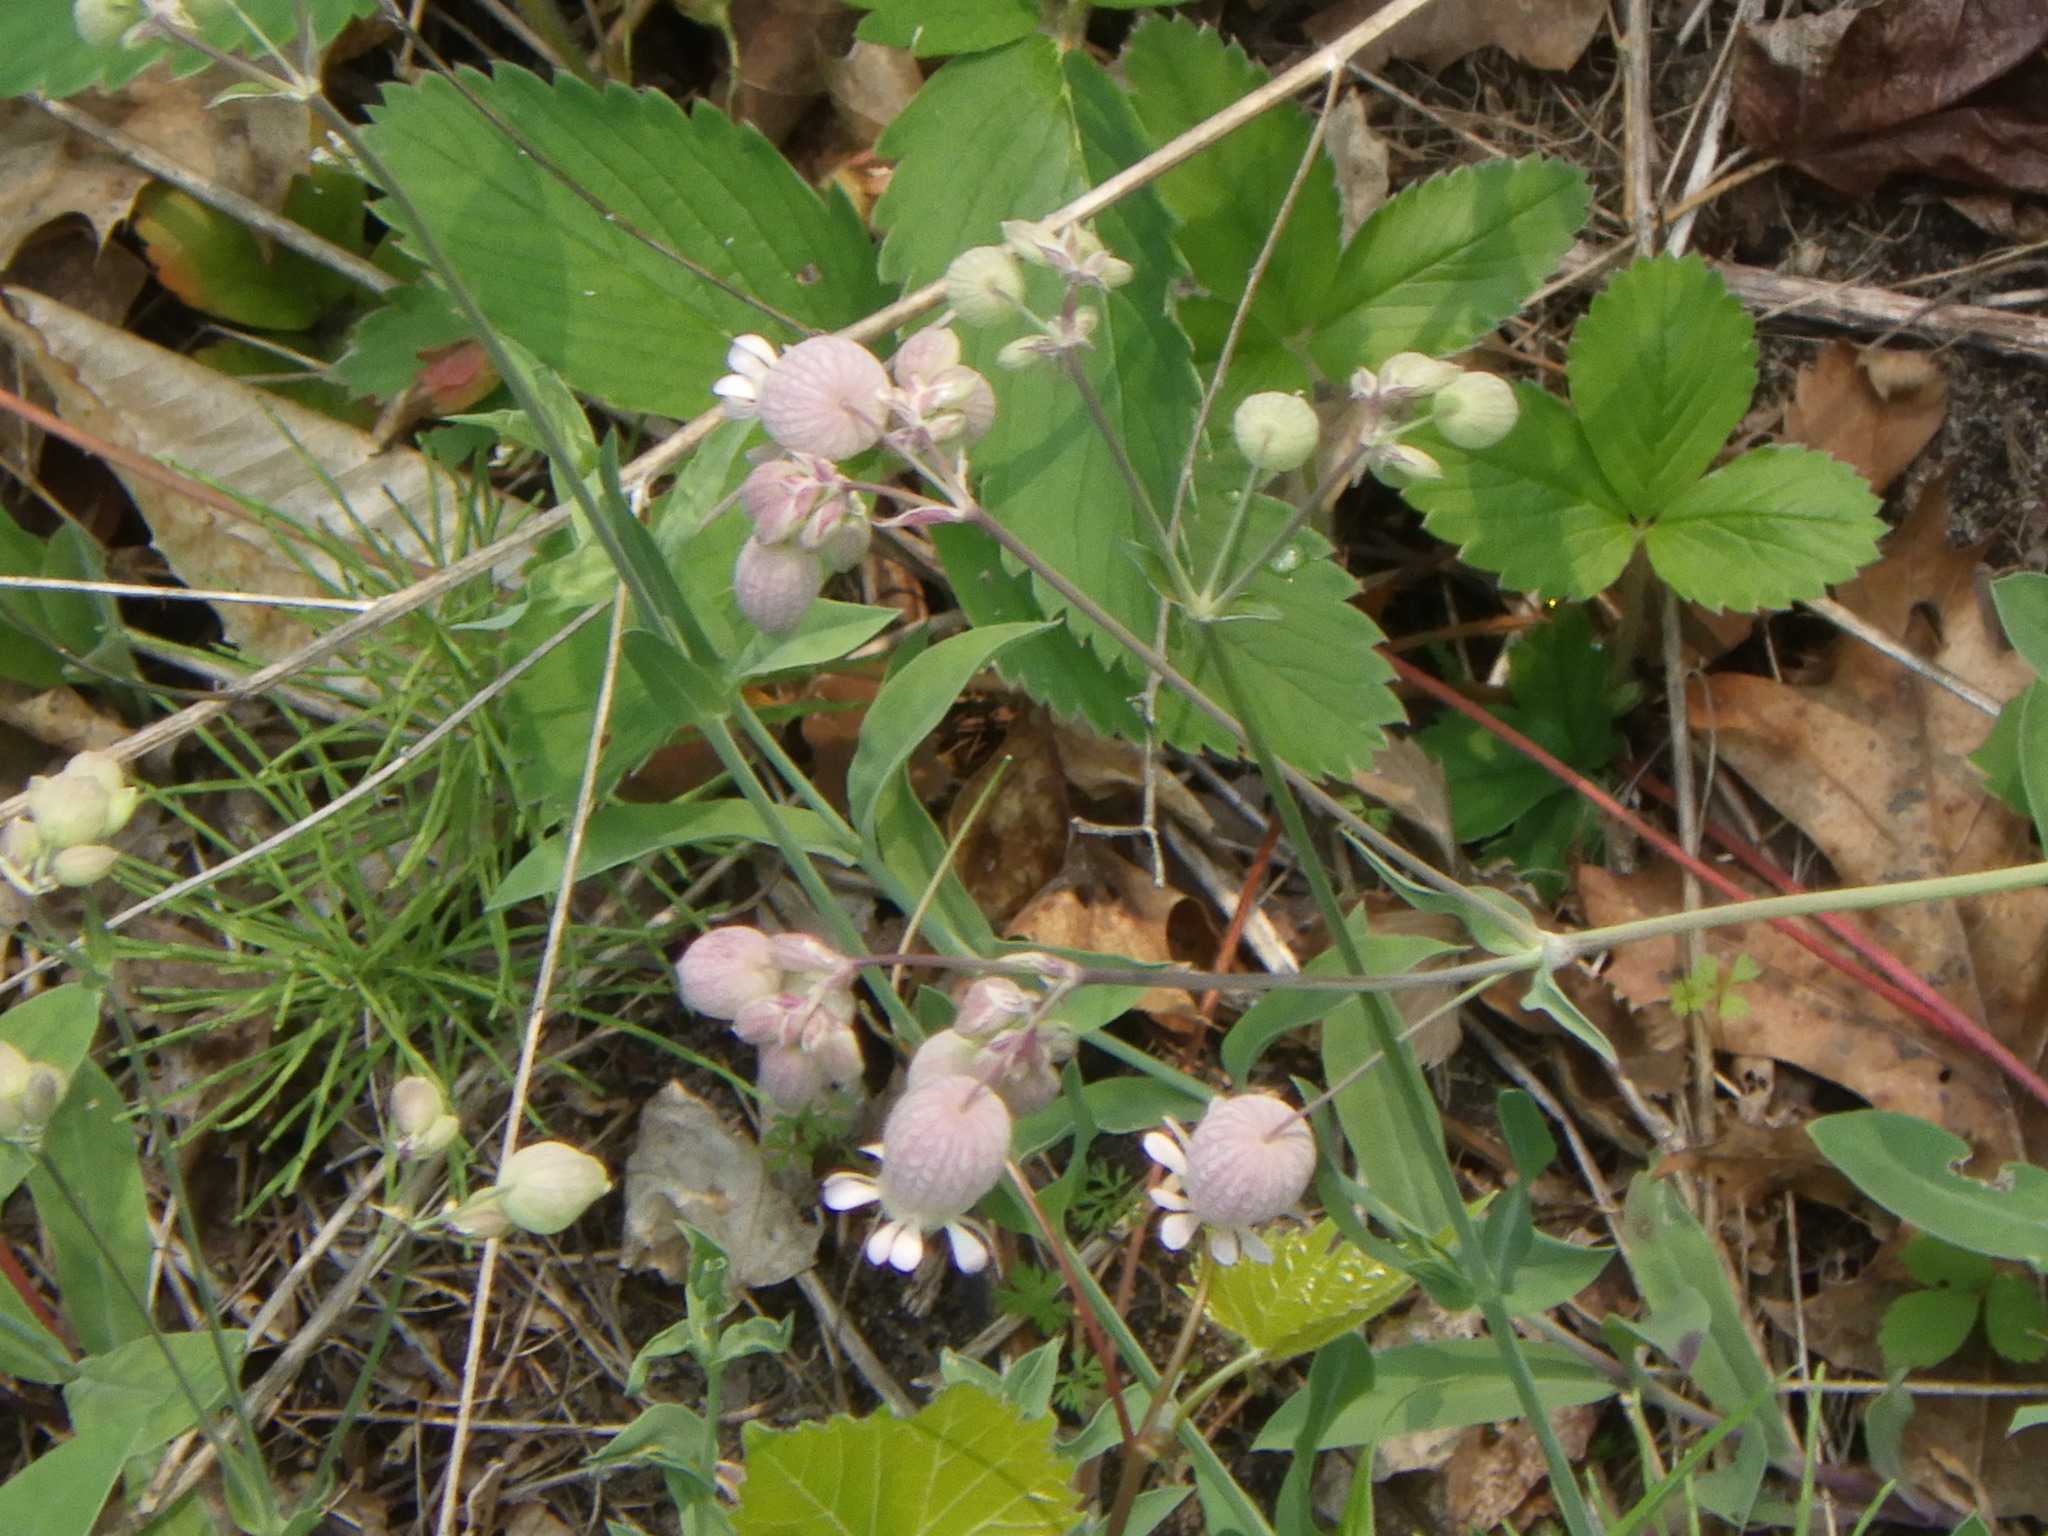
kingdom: Plantae
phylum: Tracheophyta
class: Magnoliopsida
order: Caryophyllales
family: Caryophyllaceae
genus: Silene
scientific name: Silene vulgaris
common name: Bladder campion
